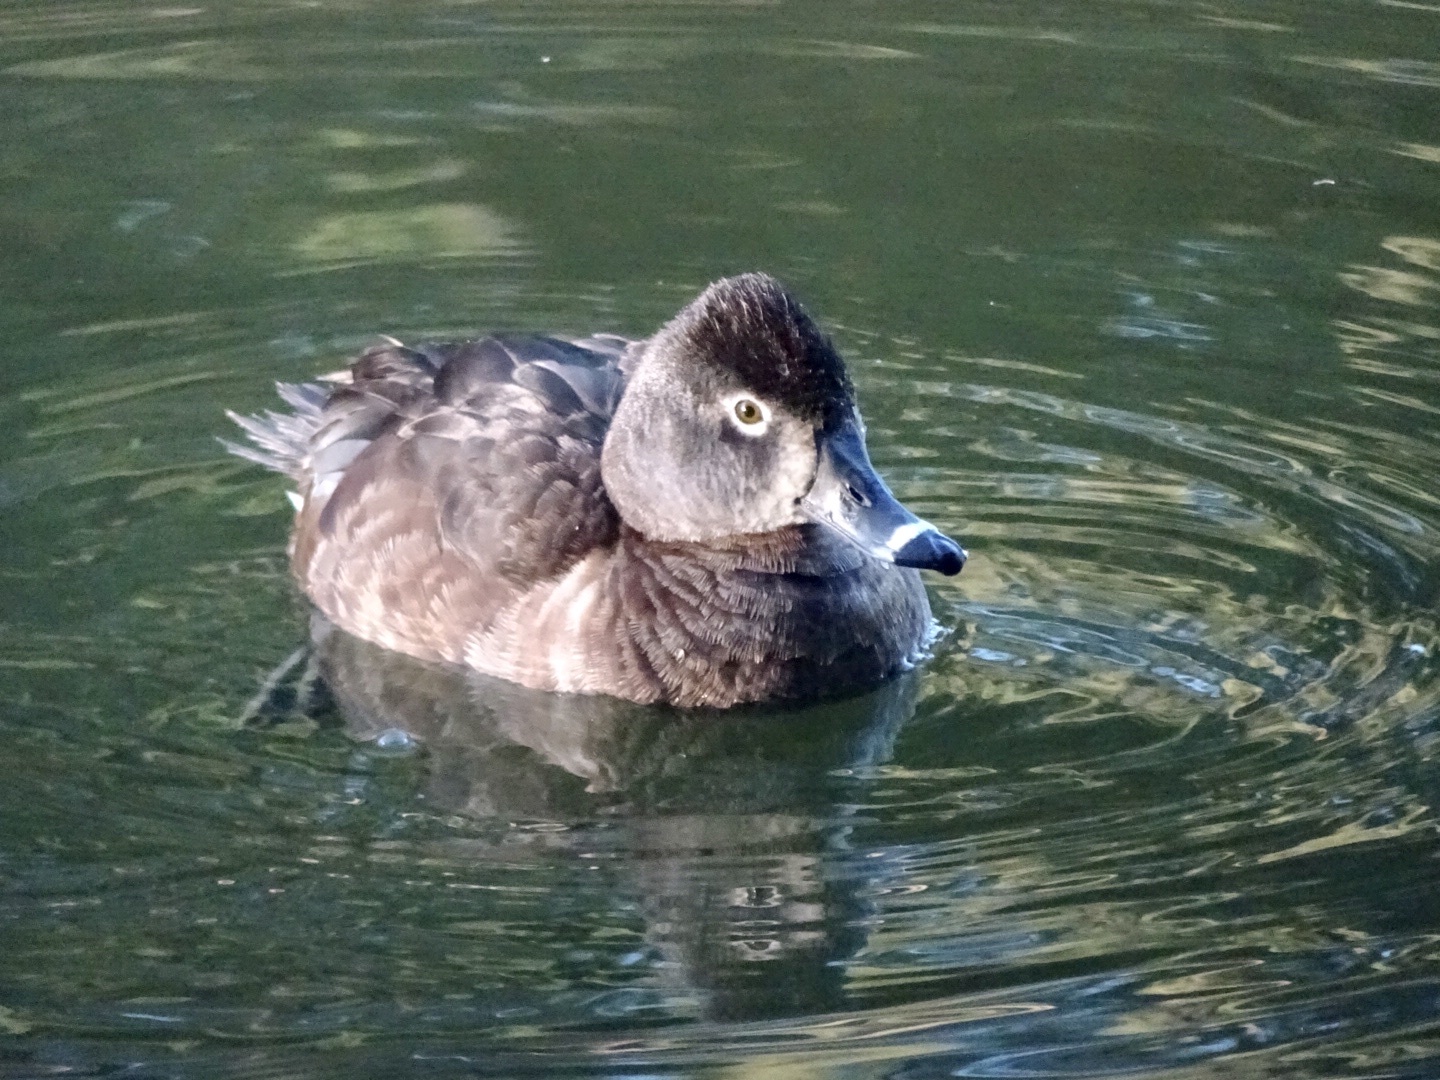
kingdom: Animalia
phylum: Chordata
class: Aves
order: Anseriformes
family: Anatidae
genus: Aythya
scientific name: Aythya collaris
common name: Ring-necked duck
